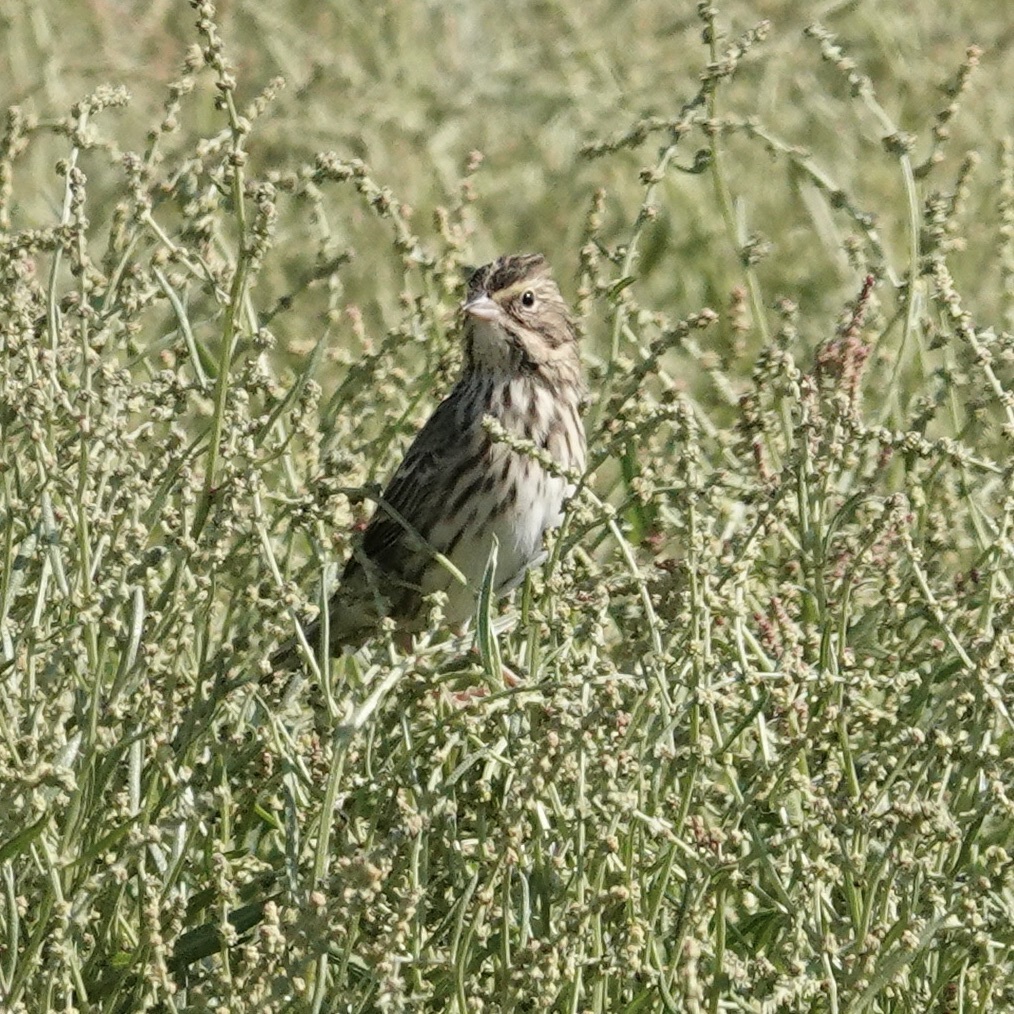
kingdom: Animalia
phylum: Chordata
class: Aves
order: Passeriformes
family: Passerellidae
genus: Passerculus
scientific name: Passerculus sandwichensis
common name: Savannah sparrow
